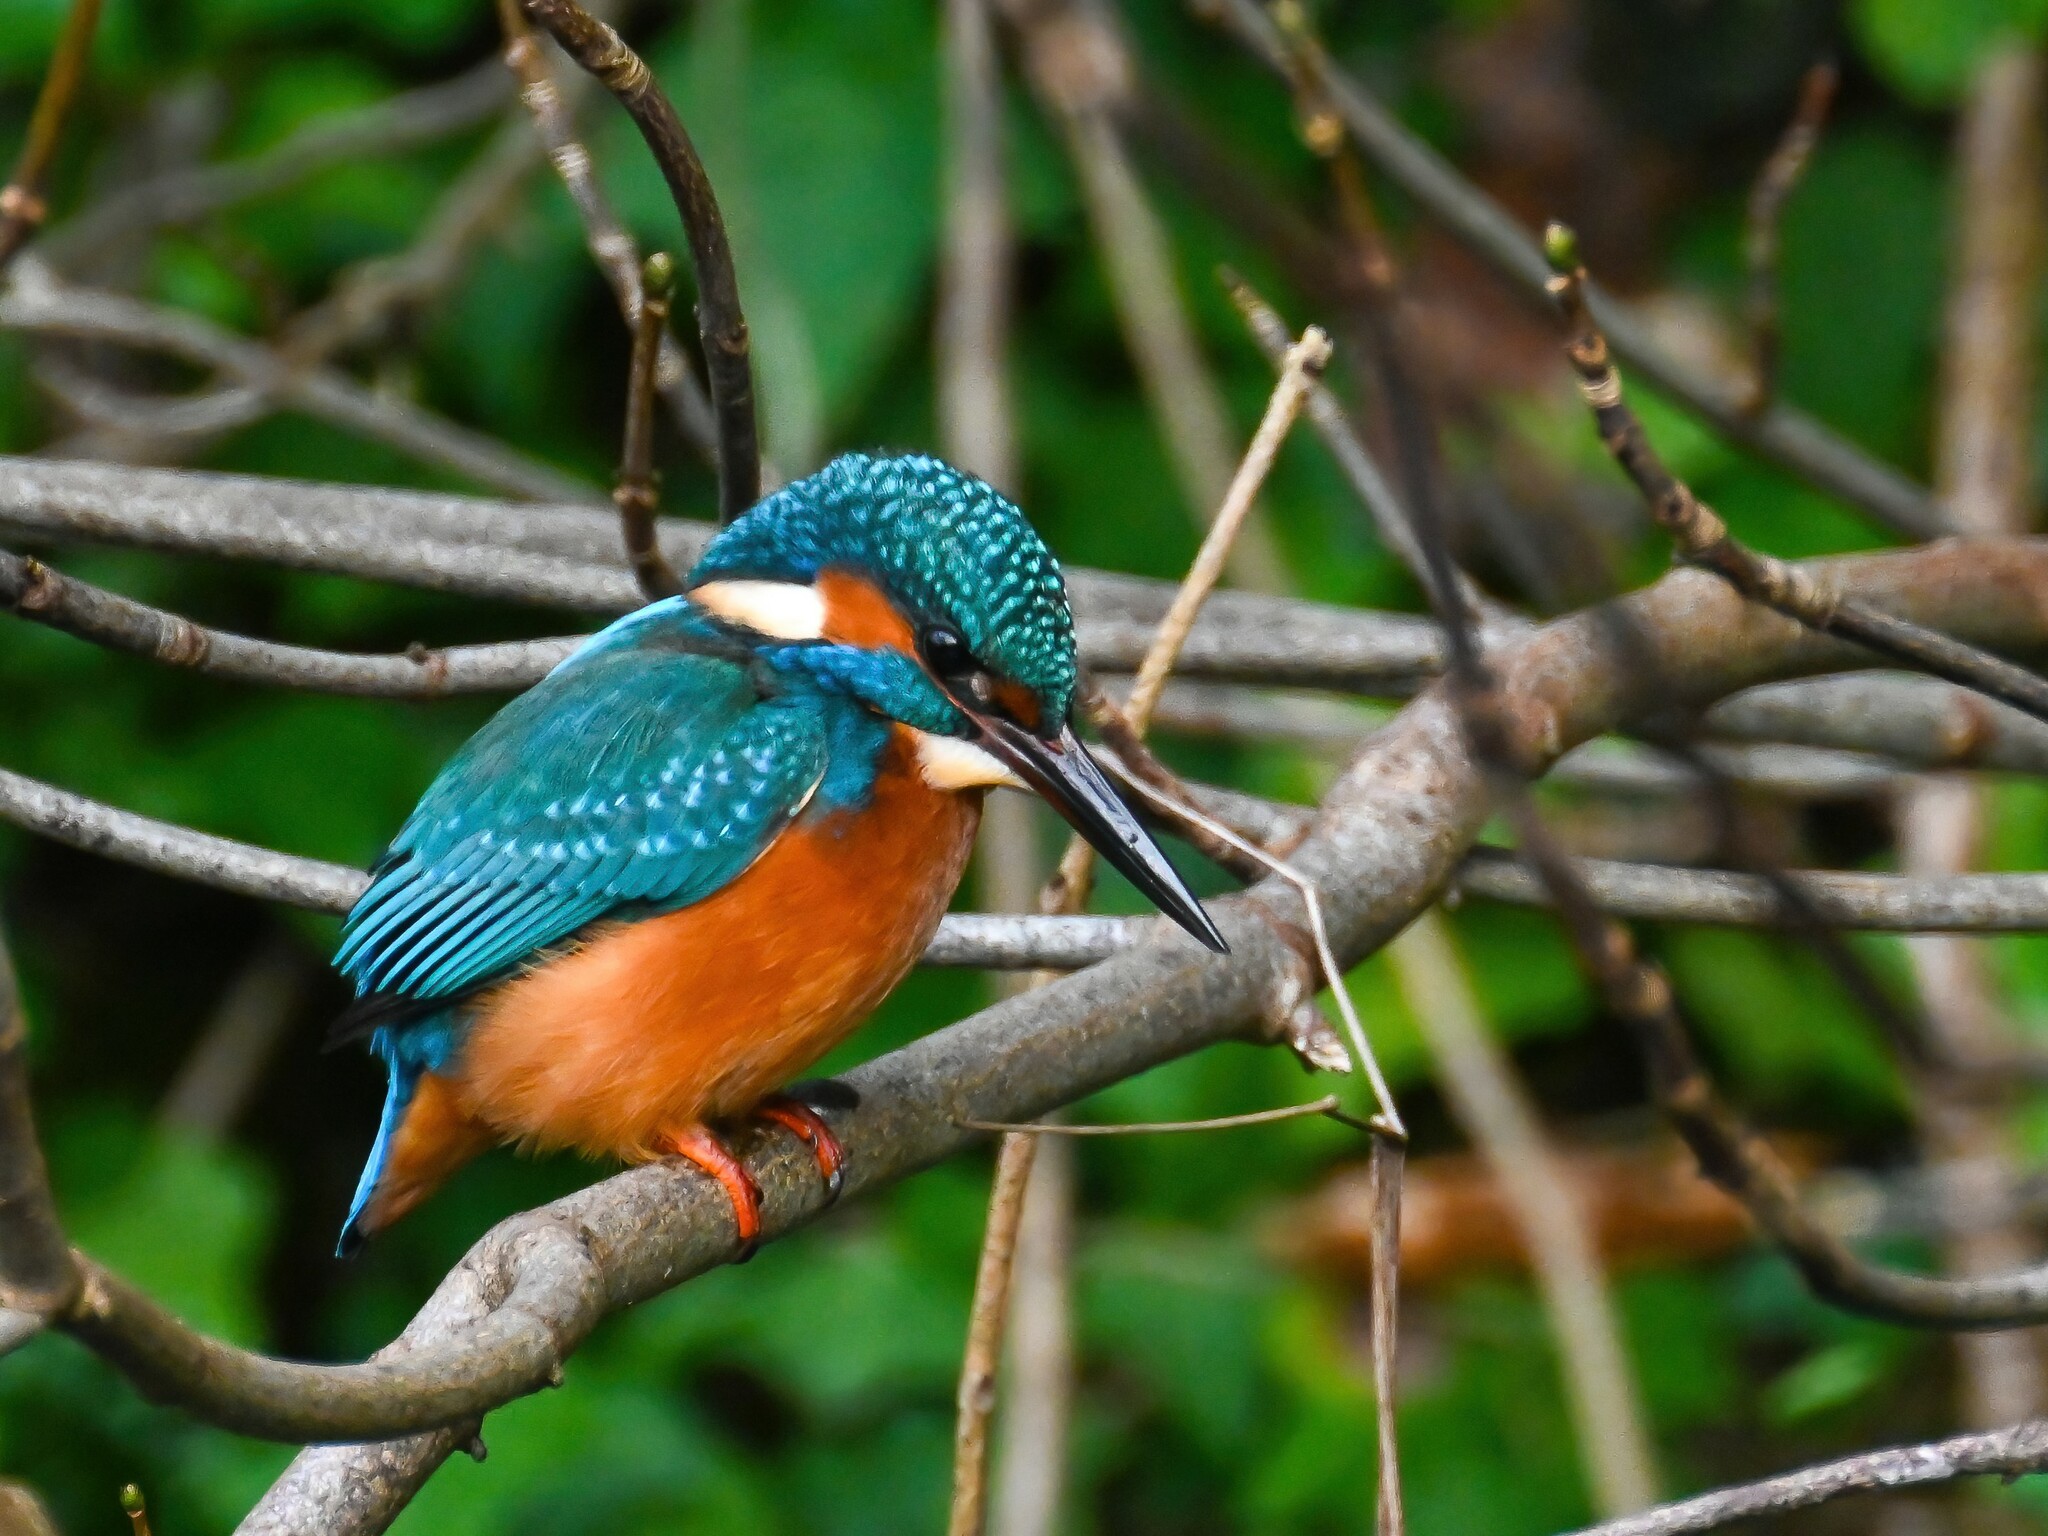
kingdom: Animalia
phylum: Chordata
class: Aves
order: Coraciiformes
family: Alcedinidae
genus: Alcedo
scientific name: Alcedo atthis
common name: Common kingfisher
